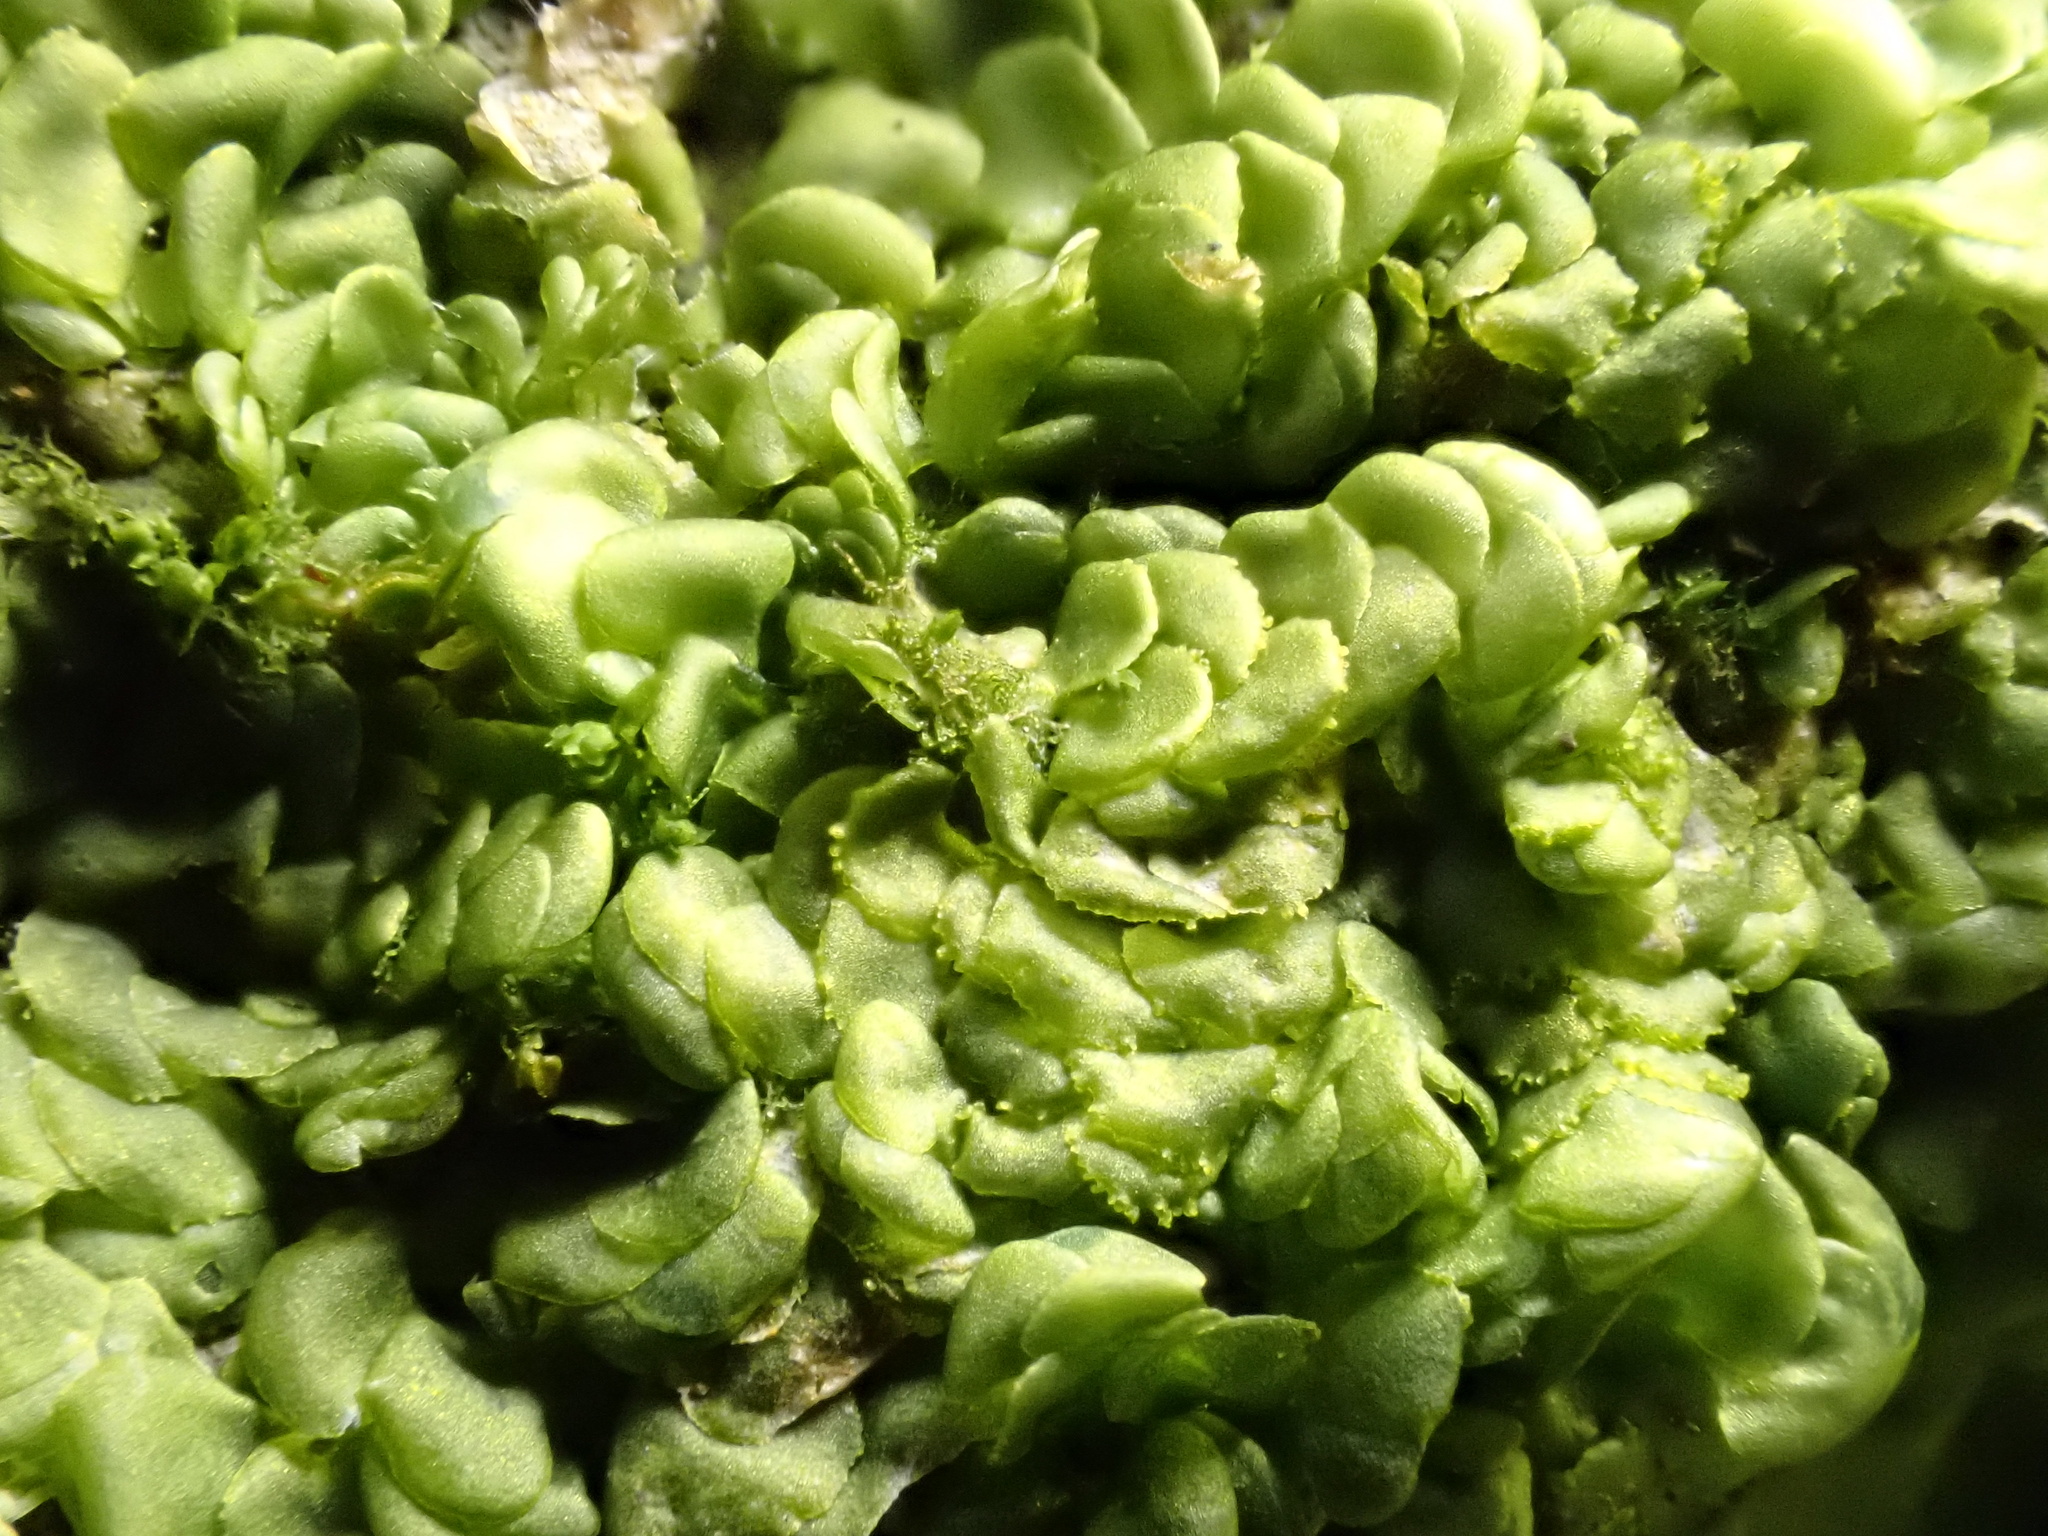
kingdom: Plantae
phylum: Marchantiophyta
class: Jungermanniopsida
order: Porellales
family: Radulaceae
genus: Radula
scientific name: Radula complanata
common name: Flat-leaved scalewort
